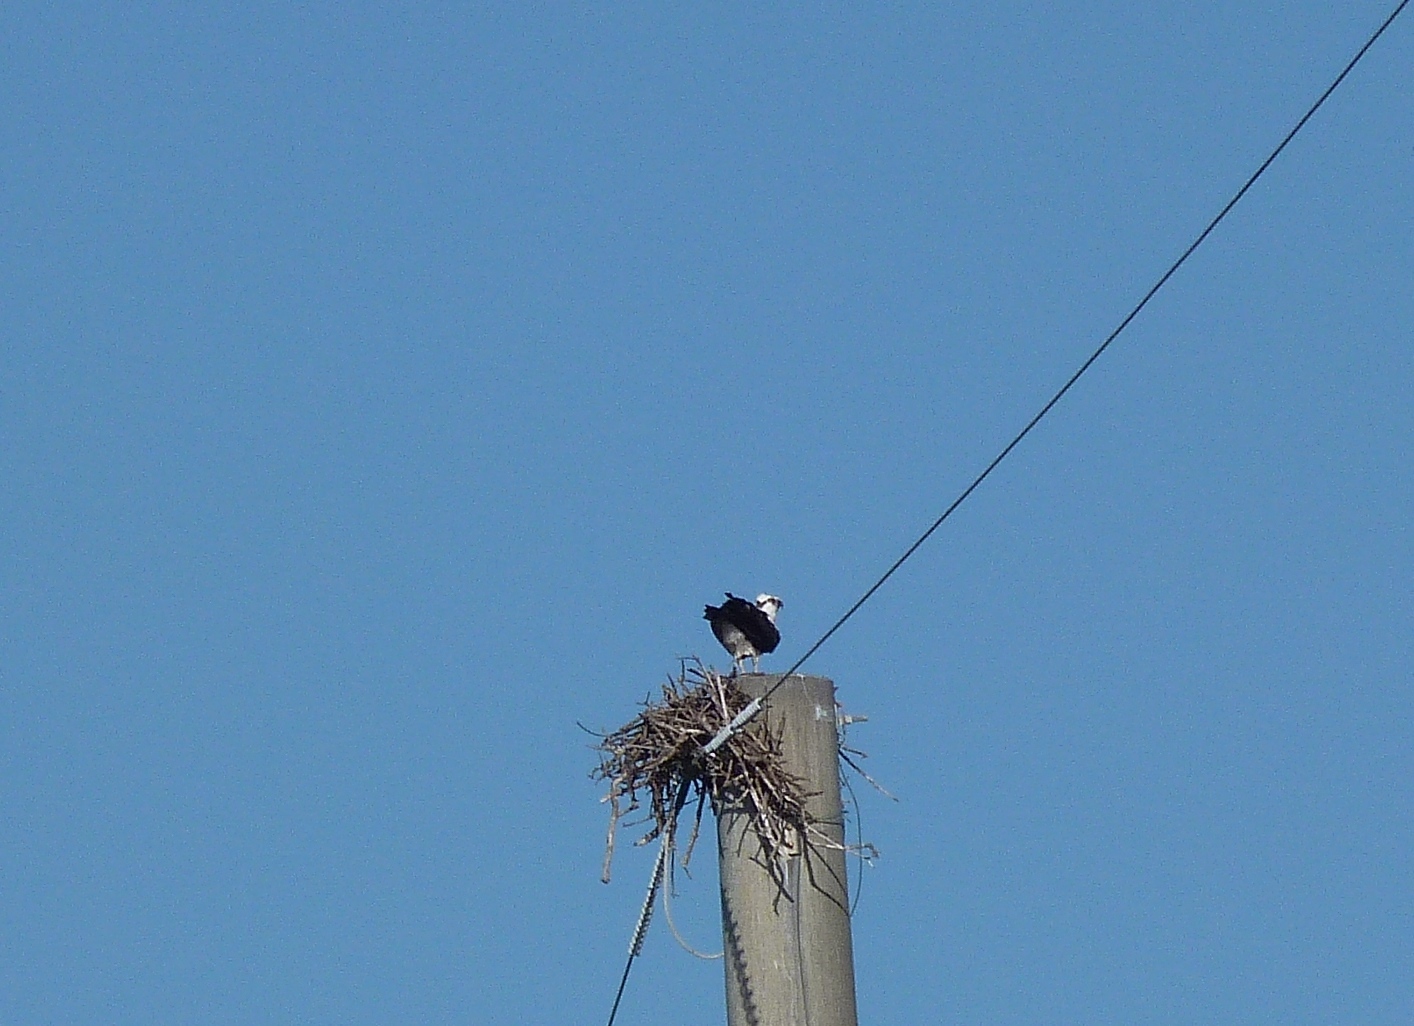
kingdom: Animalia
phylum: Chordata
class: Aves
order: Accipitriformes
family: Pandionidae
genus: Pandion
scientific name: Pandion haliaetus
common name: Osprey
